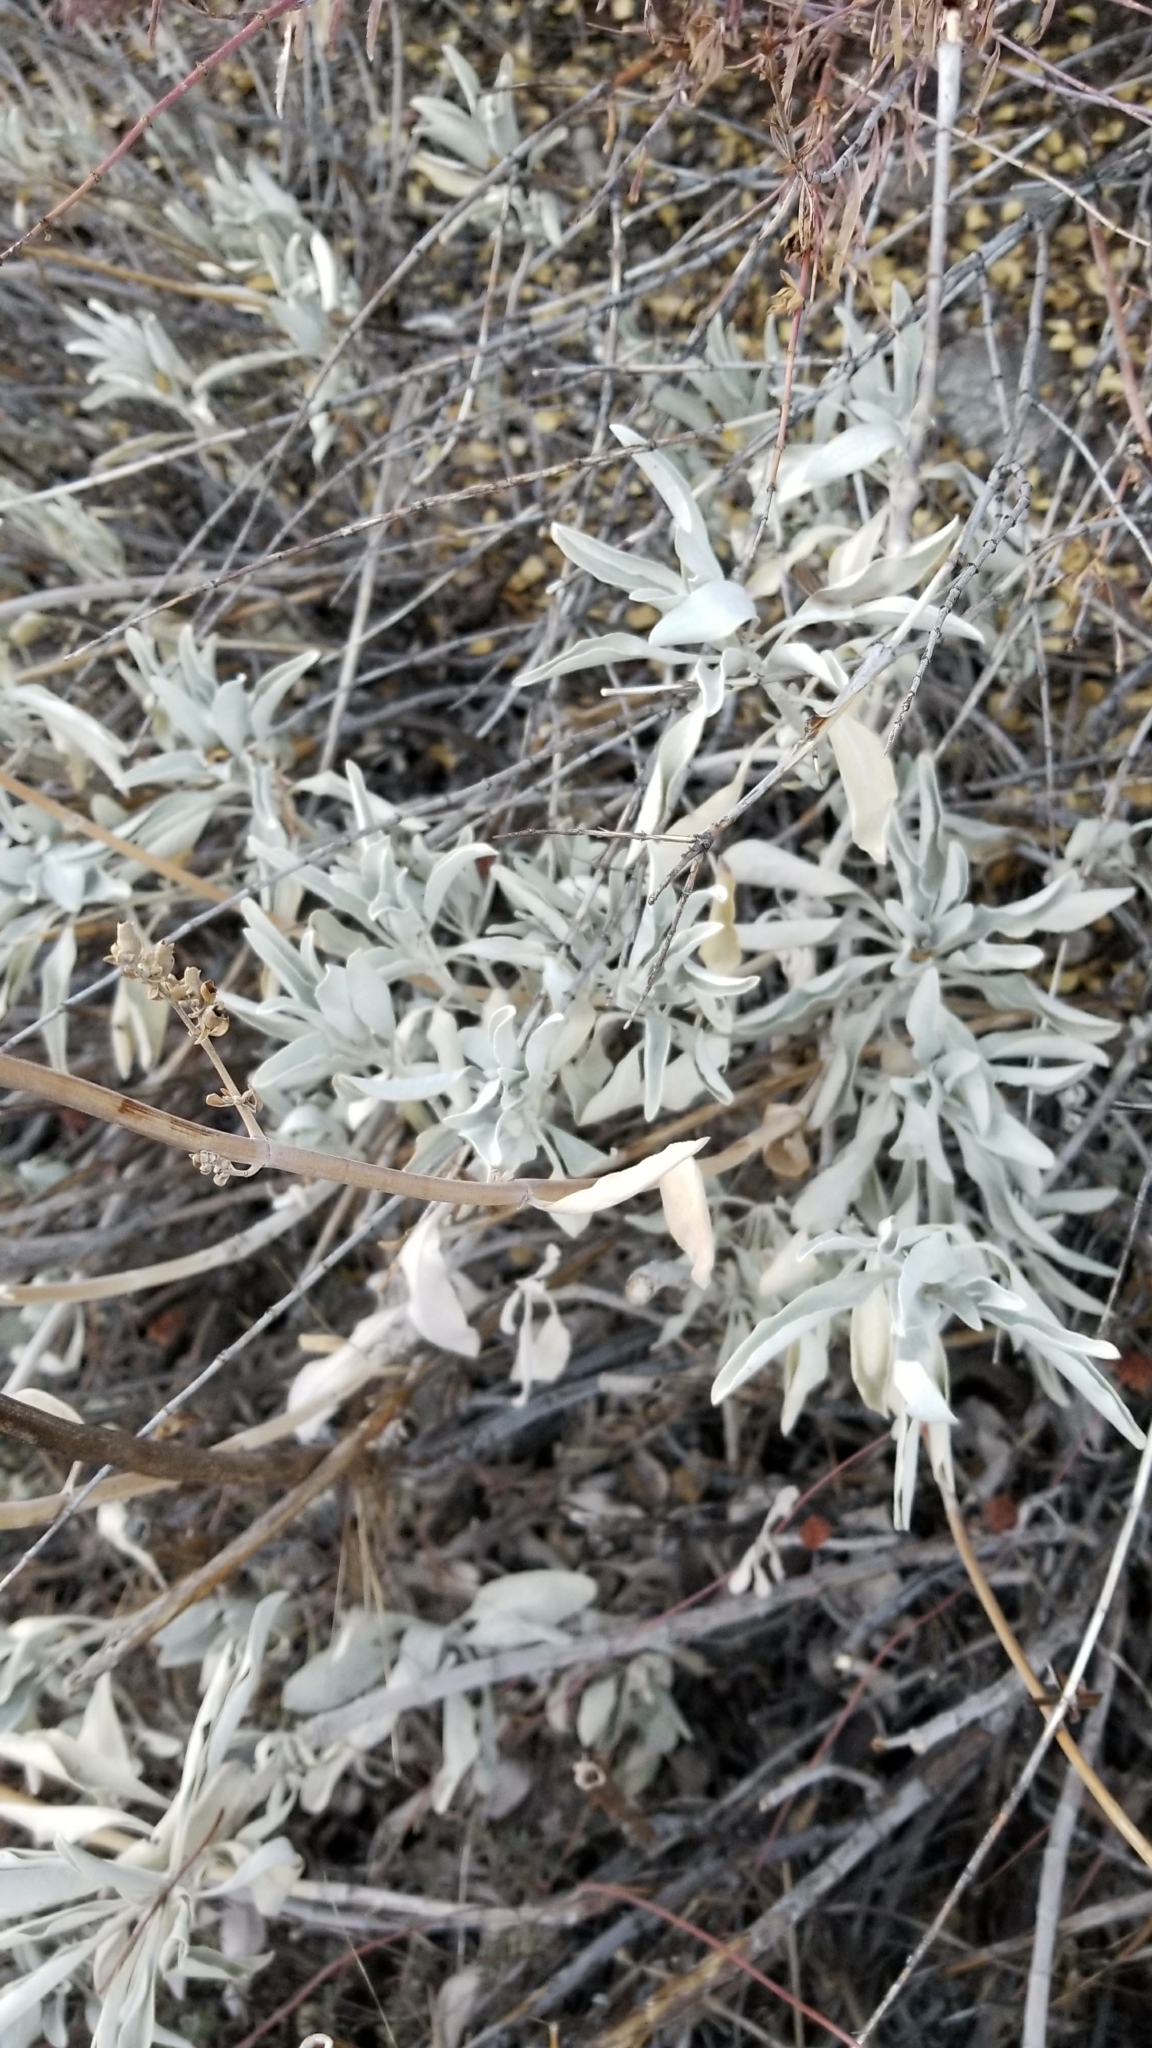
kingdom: Plantae
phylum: Tracheophyta
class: Magnoliopsida
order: Lamiales
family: Lamiaceae
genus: Salvia
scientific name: Salvia apiana
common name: White sage
